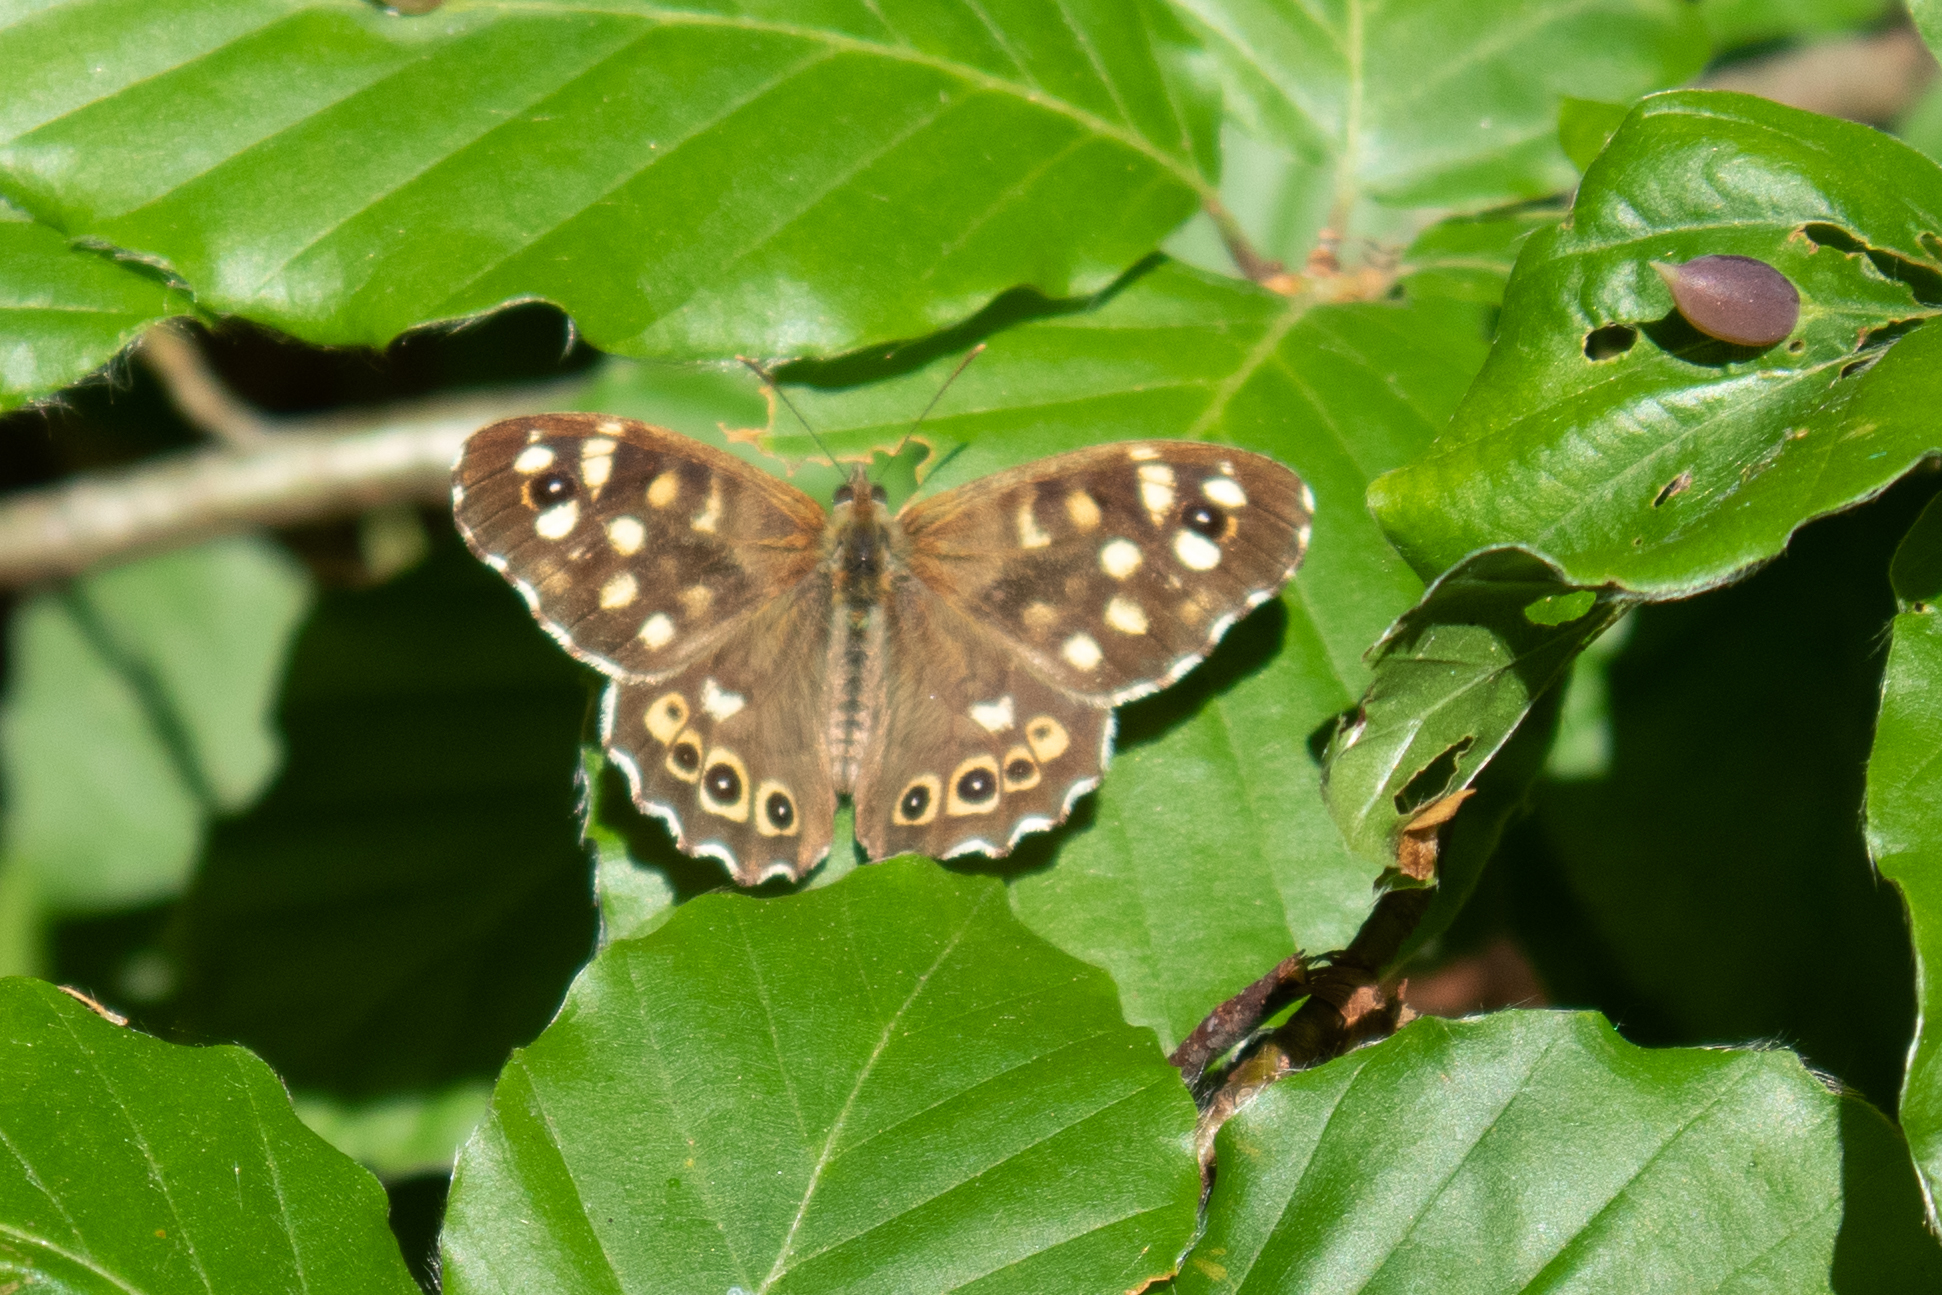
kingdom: Animalia
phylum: Arthropoda
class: Insecta
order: Lepidoptera
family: Nymphalidae
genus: Pararge
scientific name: Pararge aegeria
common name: Speckled wood
